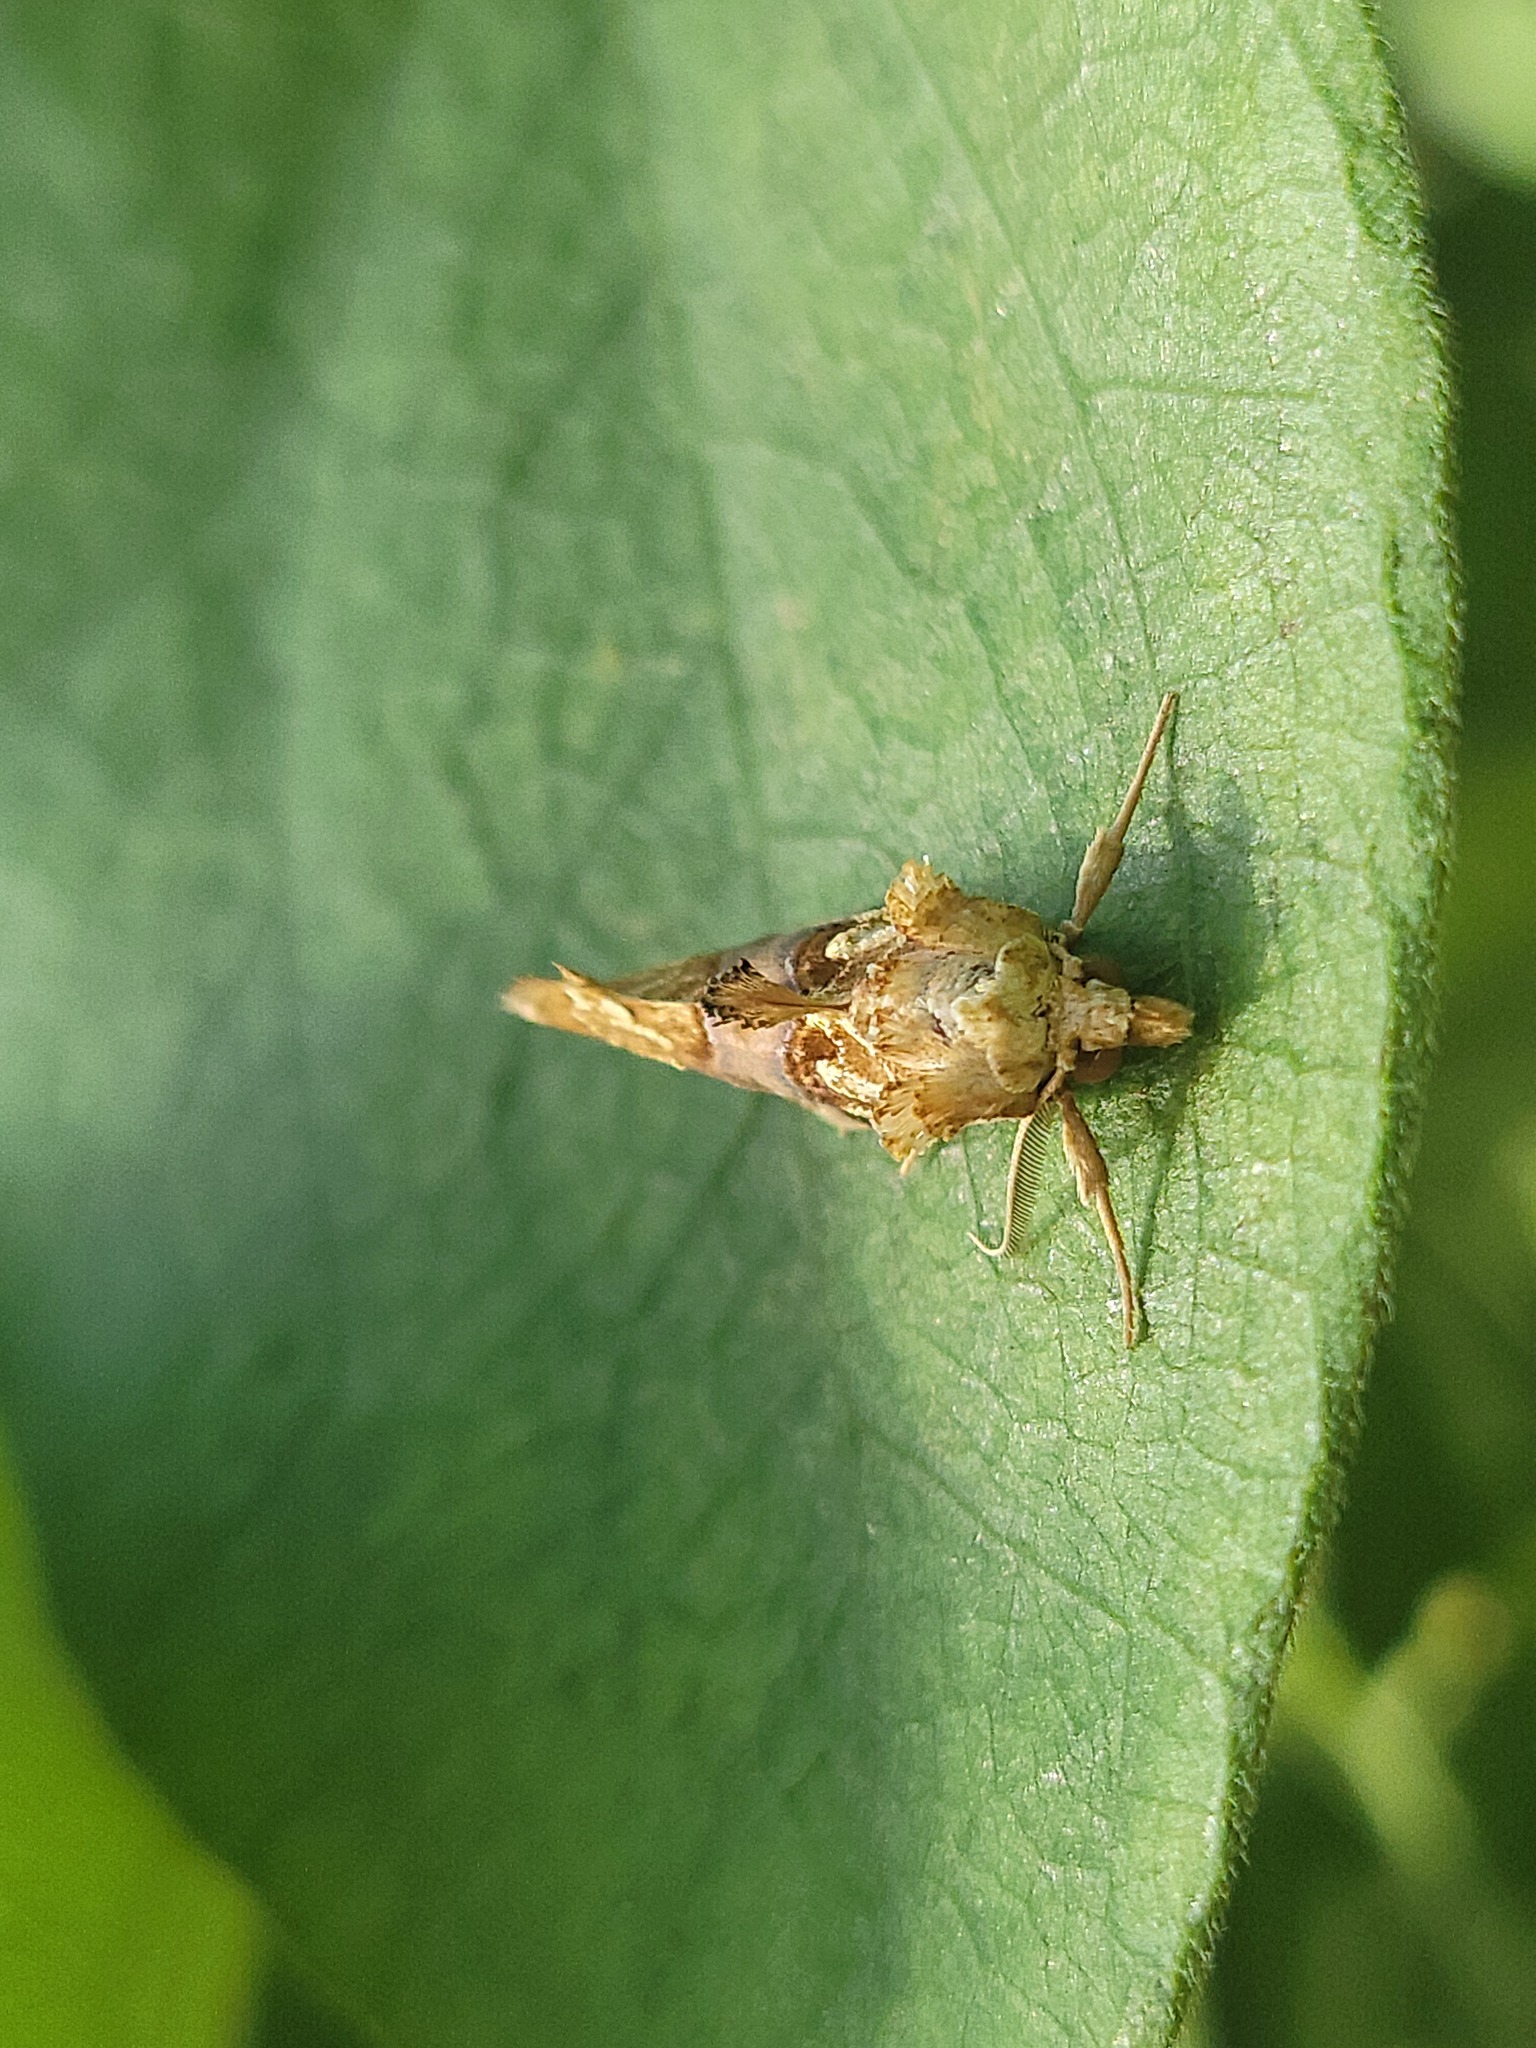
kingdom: Animalia
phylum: Arthropoda
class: Insecta
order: Lepidoptera
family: Erebidae
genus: Plusiodonta
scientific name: Plusiodonta compressipalpis
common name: Moonseed moth
